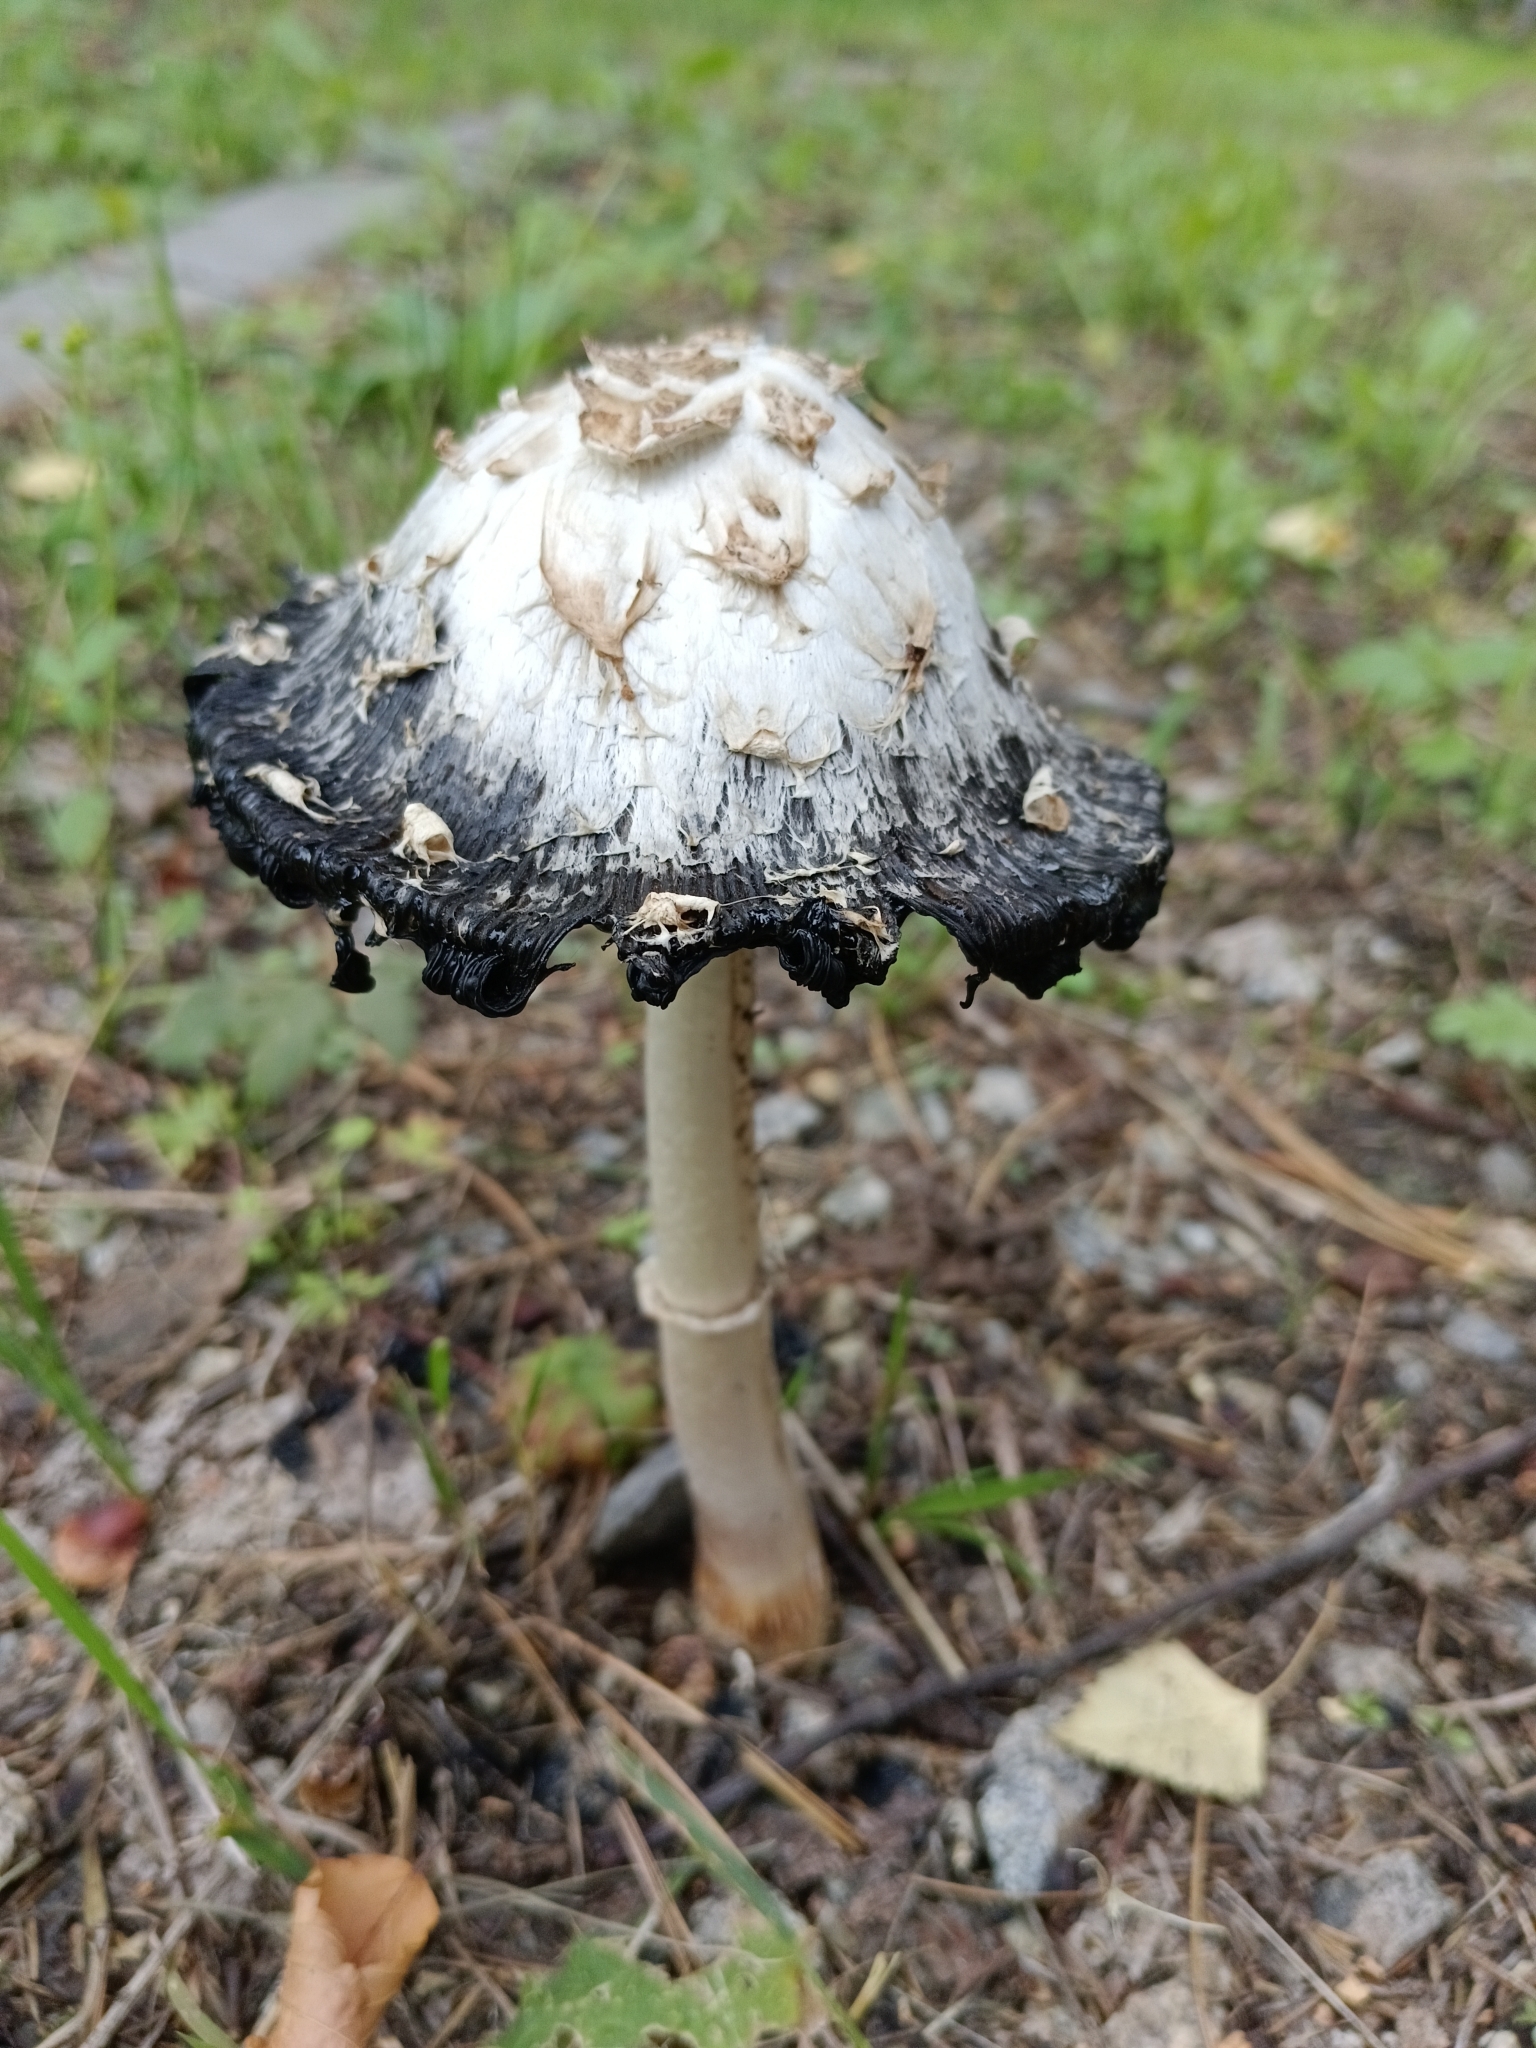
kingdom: Fungi
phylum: Basidiomycota
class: Agaricomycetes
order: Agaricales
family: Agaricaceae
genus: Coprinus
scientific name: Coprinus comatus
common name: Lawyer's wig
